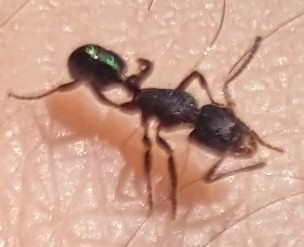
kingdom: Animalia
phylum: Arthropoda
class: Insecta
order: Hymenoptera
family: Formicidae
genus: Rhytidoponera
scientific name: Rhytidoponera metallica
